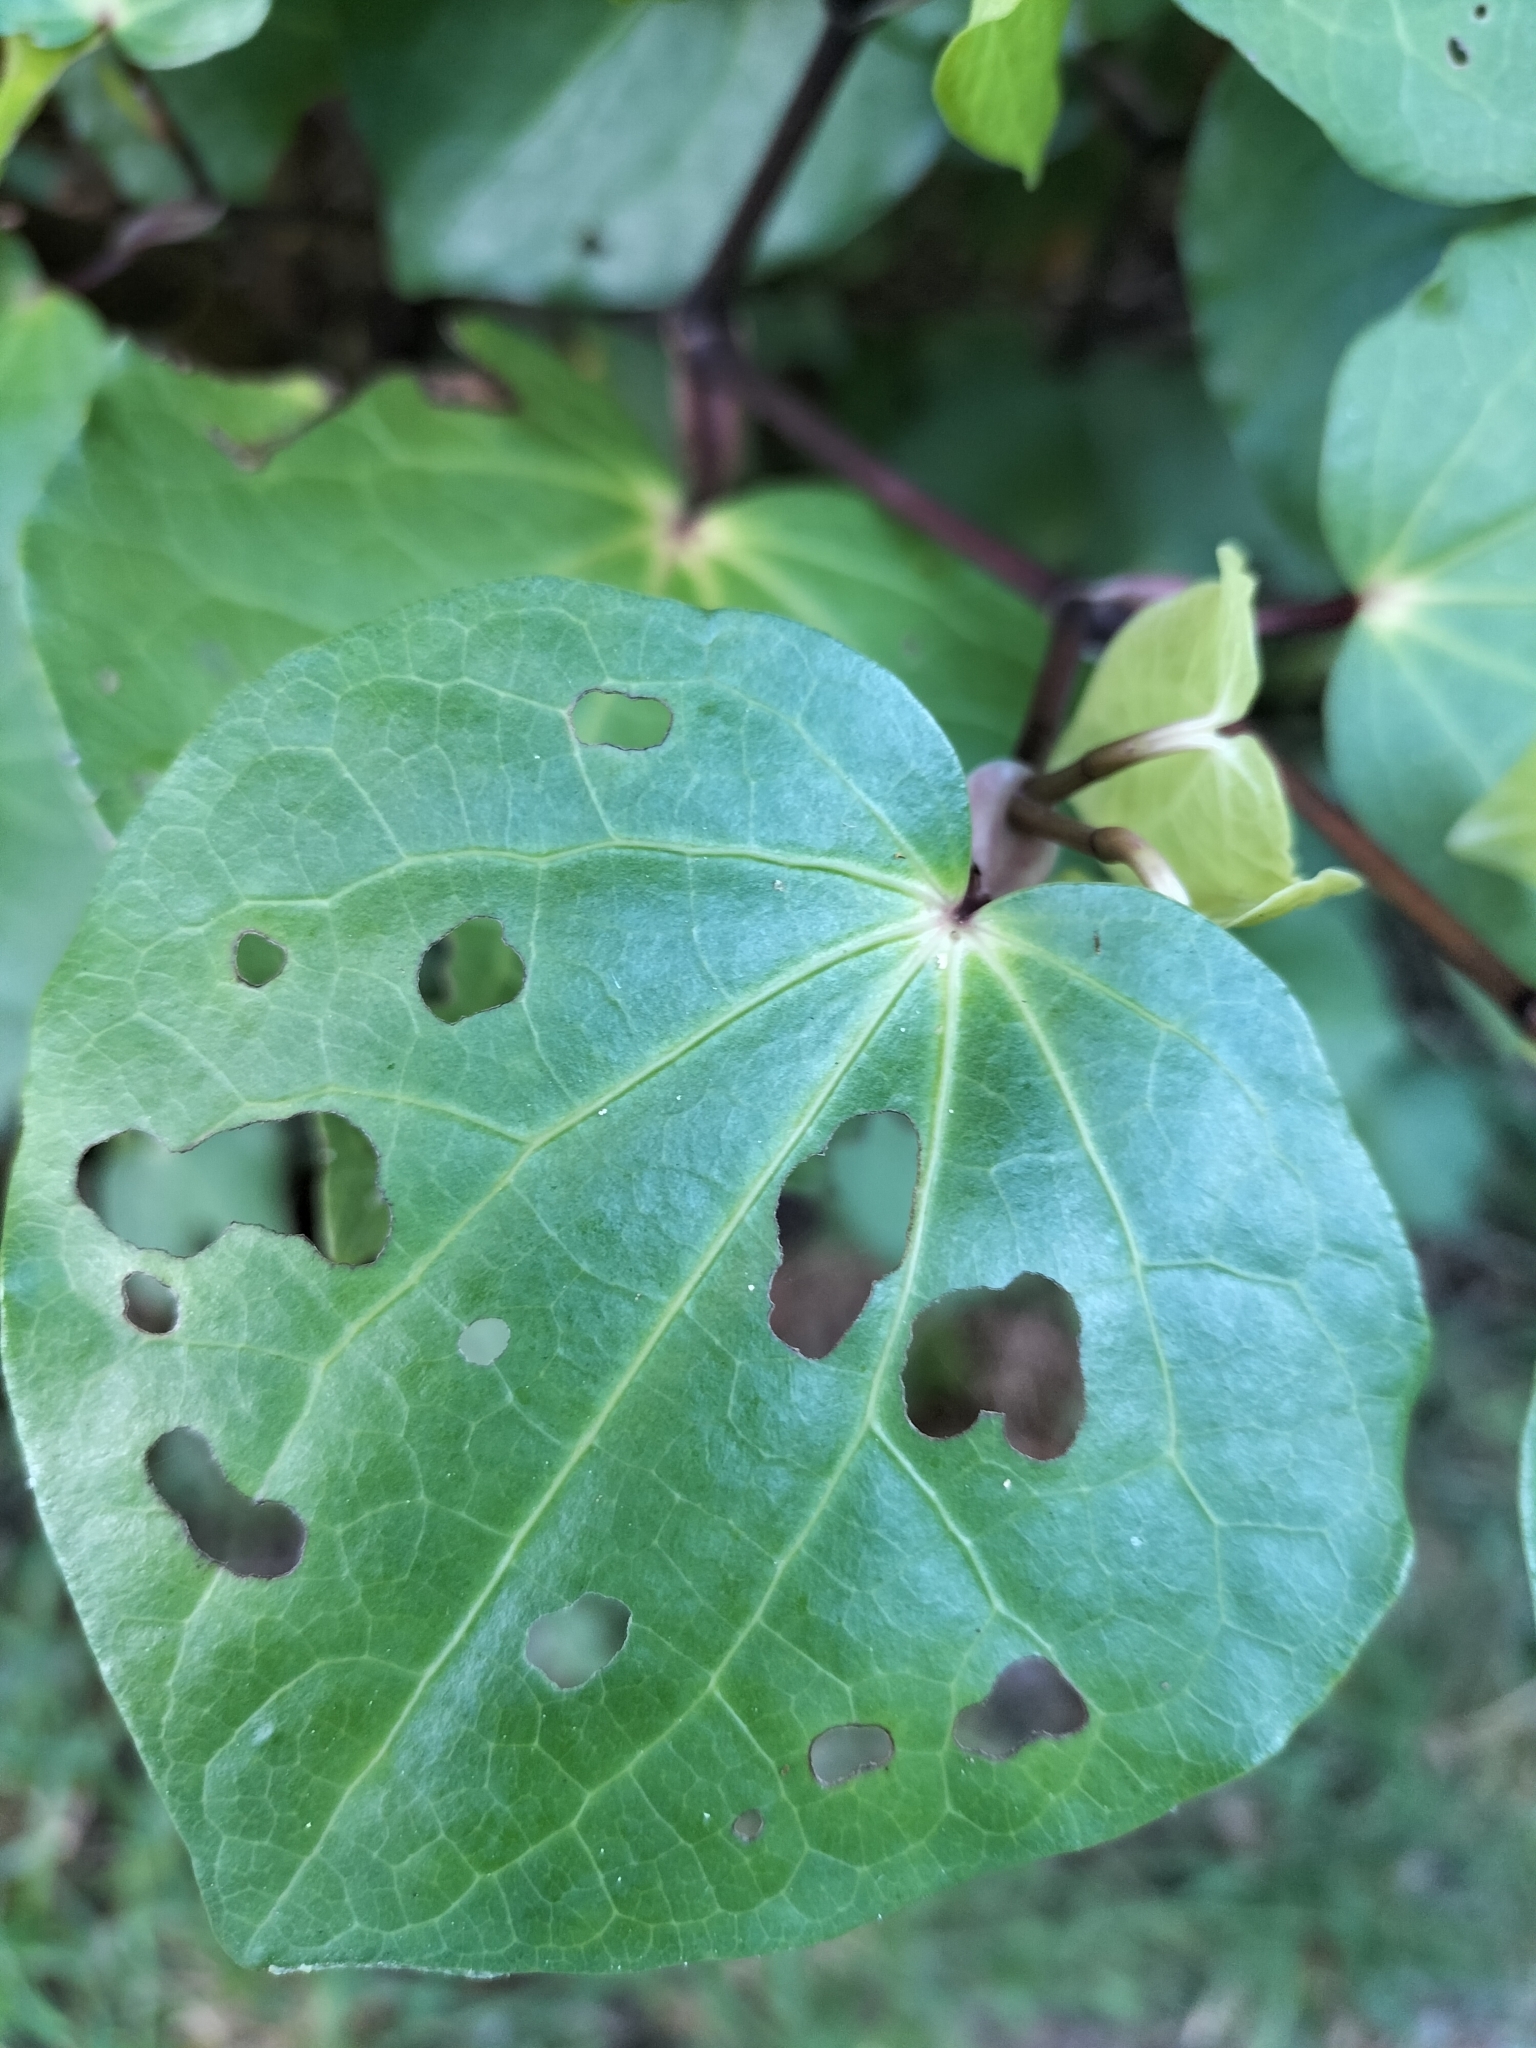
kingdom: Animalia
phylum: Arthropoda
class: Insecta
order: Lepidoptera
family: Geometridae
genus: Cleora
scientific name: Cleora scriptaria
